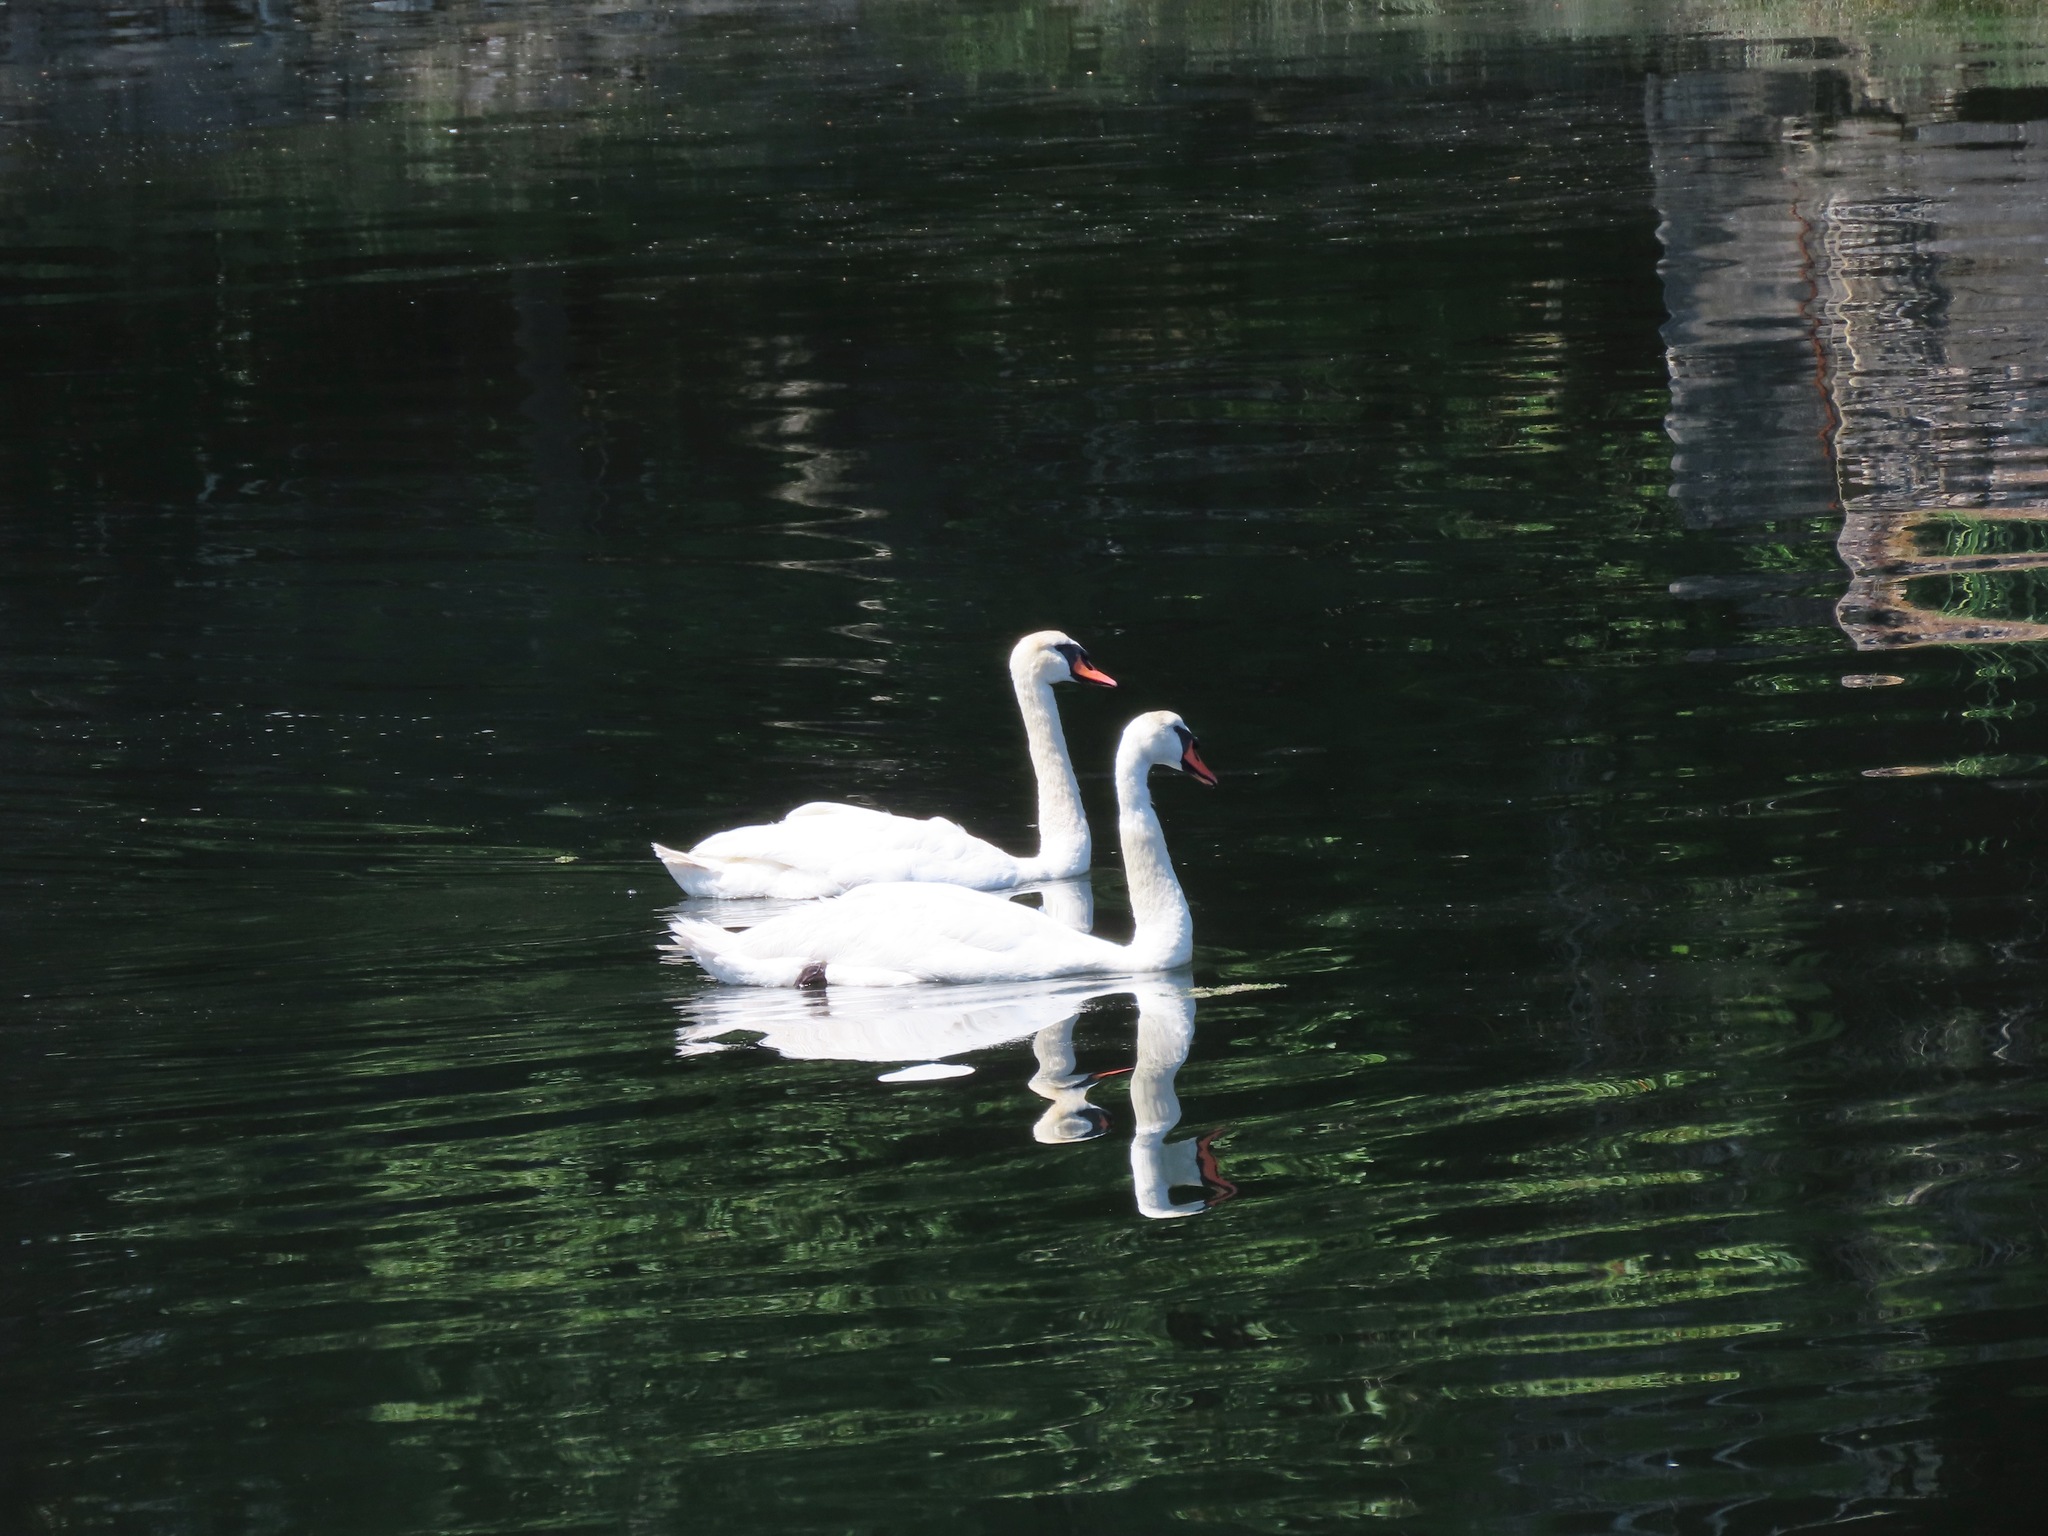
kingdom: Animalia
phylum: Chordata
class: Aves
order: Anseriformes
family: Anatidae
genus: Cygnus
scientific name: Cygnus olor
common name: Mute swan
